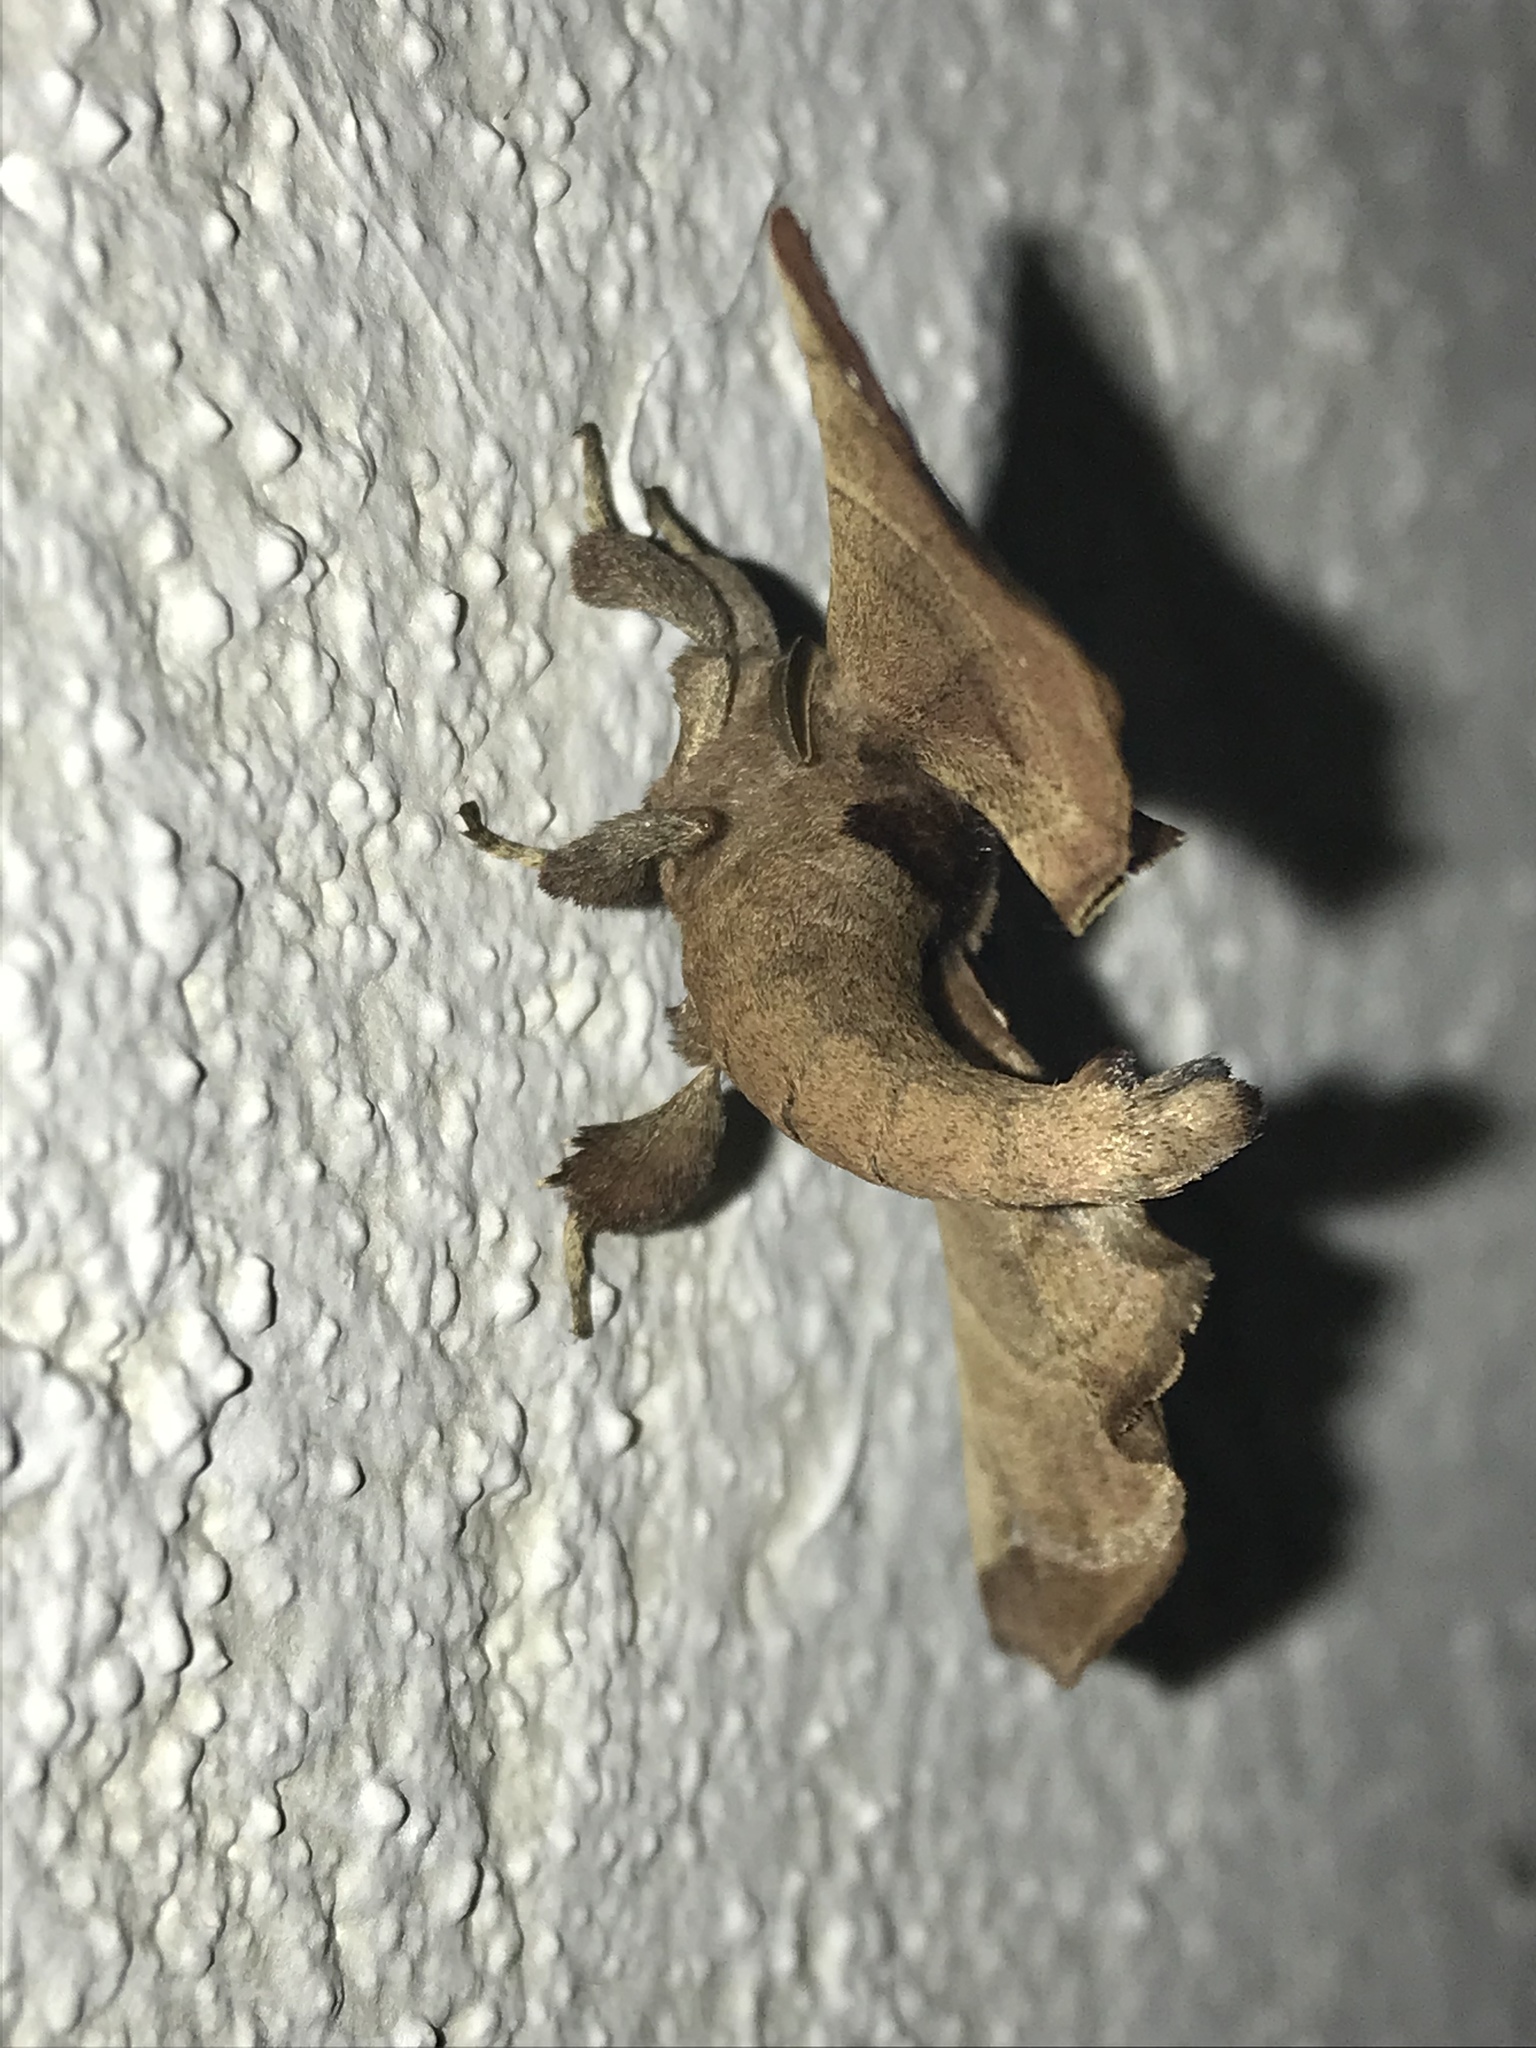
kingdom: Animalia
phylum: Arthropoda
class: Insecta
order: Lepidoptera
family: Apatelodidae
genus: Hygrochroa
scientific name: Hygrochroa
